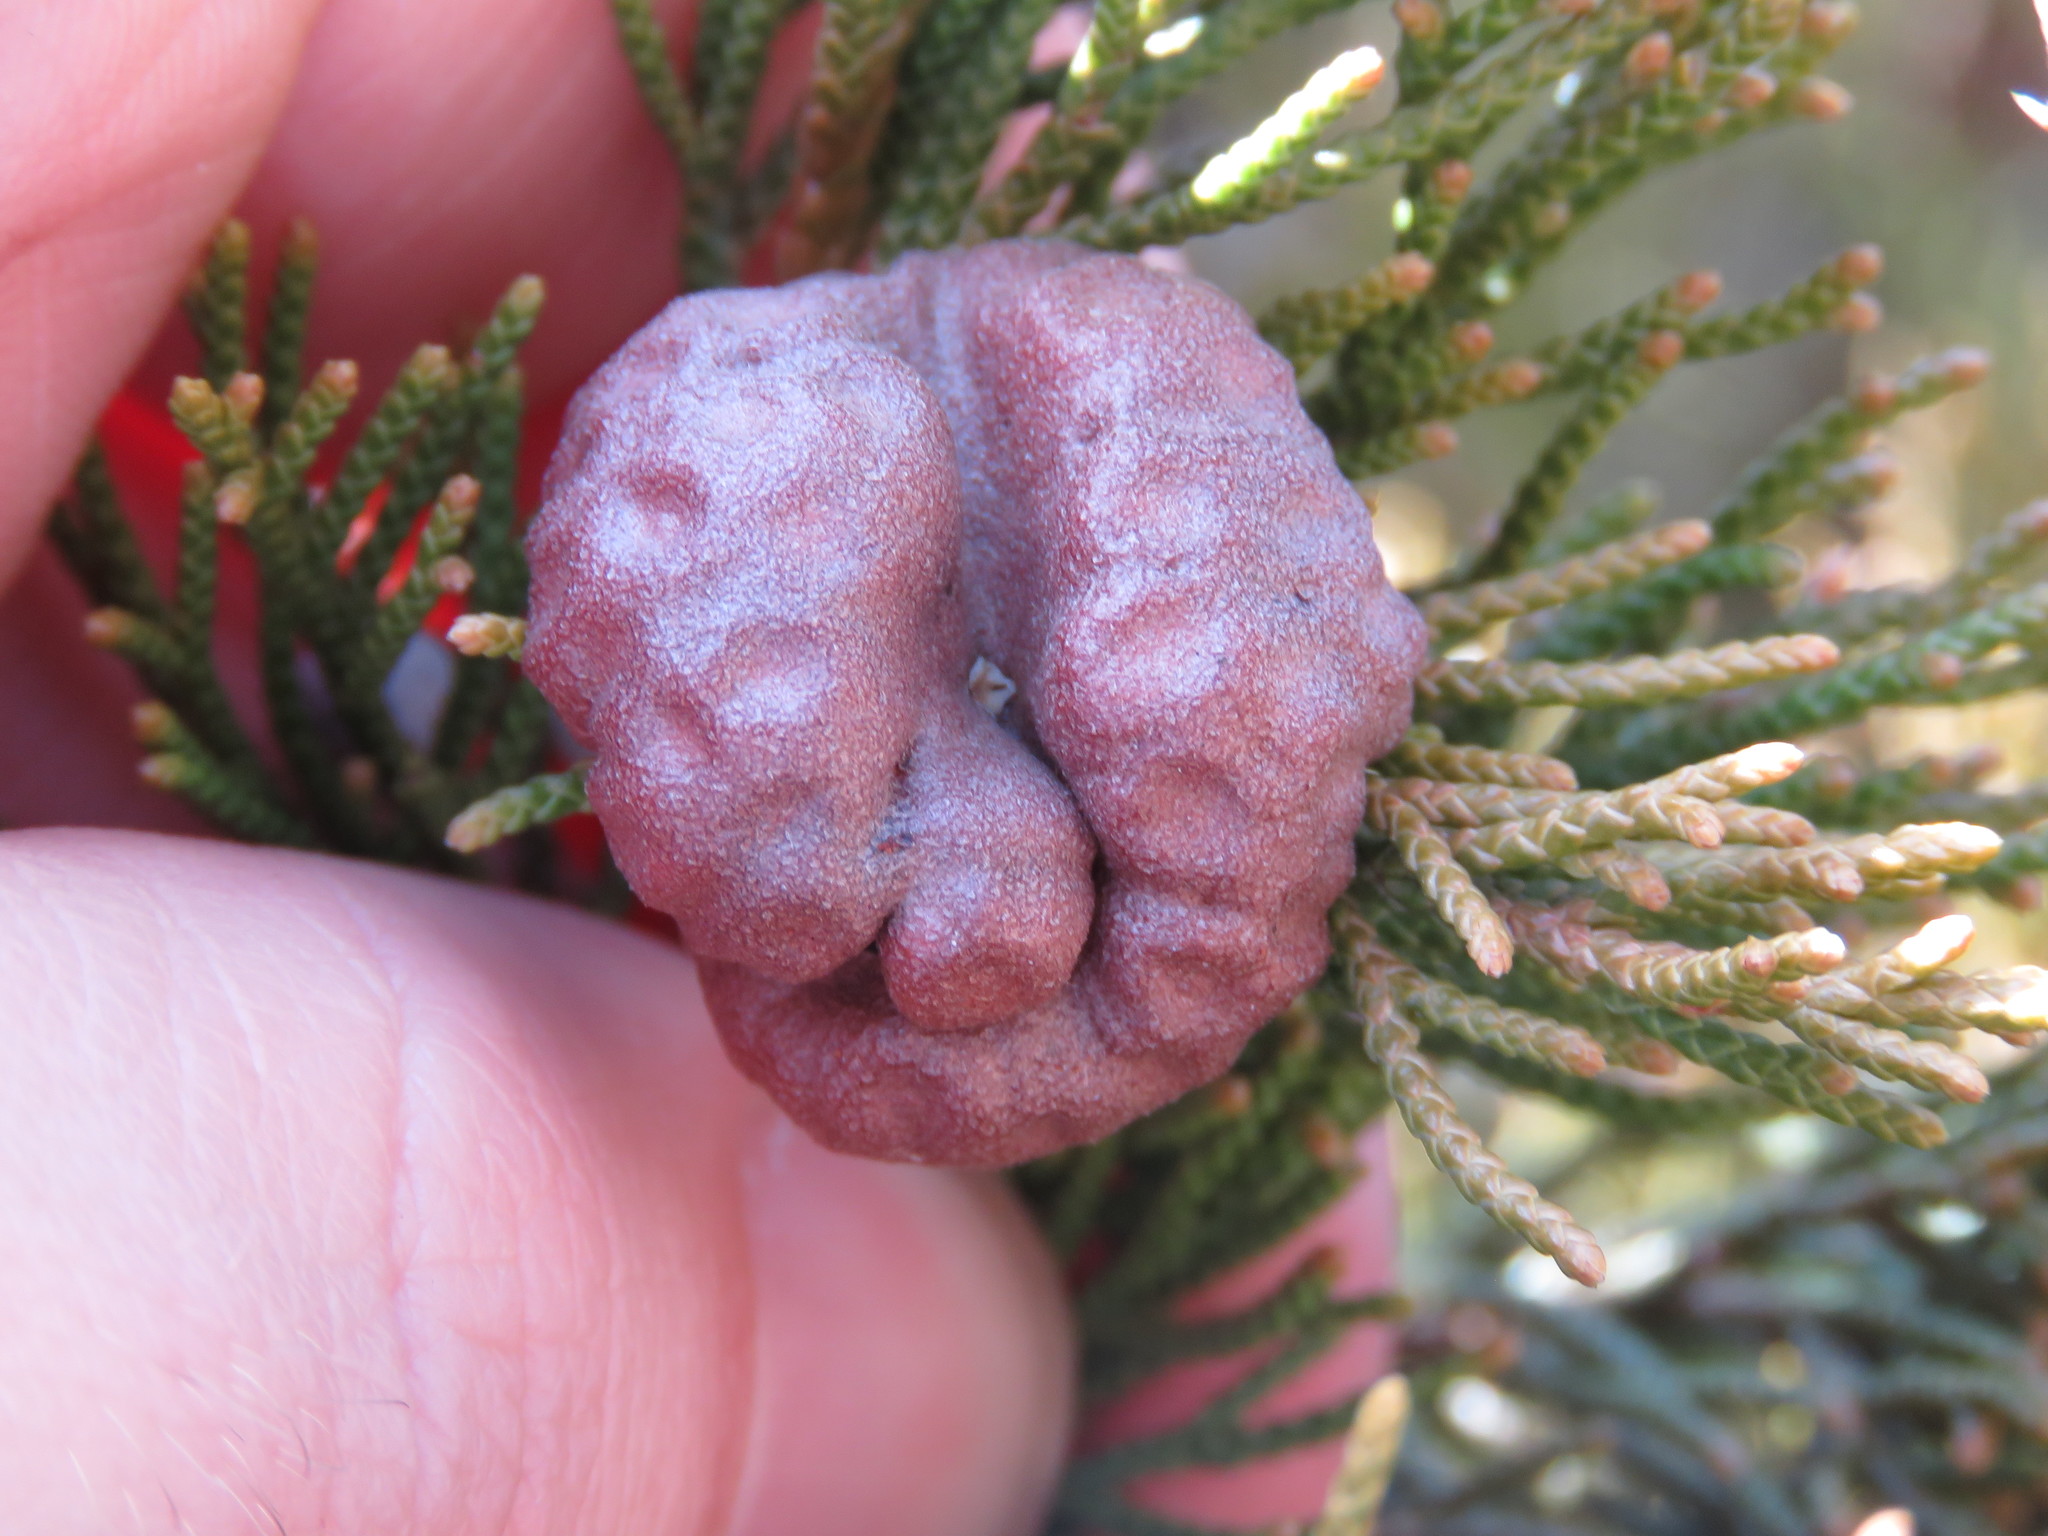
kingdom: Fungi
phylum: Basidiomycota
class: Pucciniomycetes
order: Pucciniales
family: Gymnosporangiaceae
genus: Gymnosporangium
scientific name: Gymnosporangium juniperi-virginianae
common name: Juniper-apple rust
